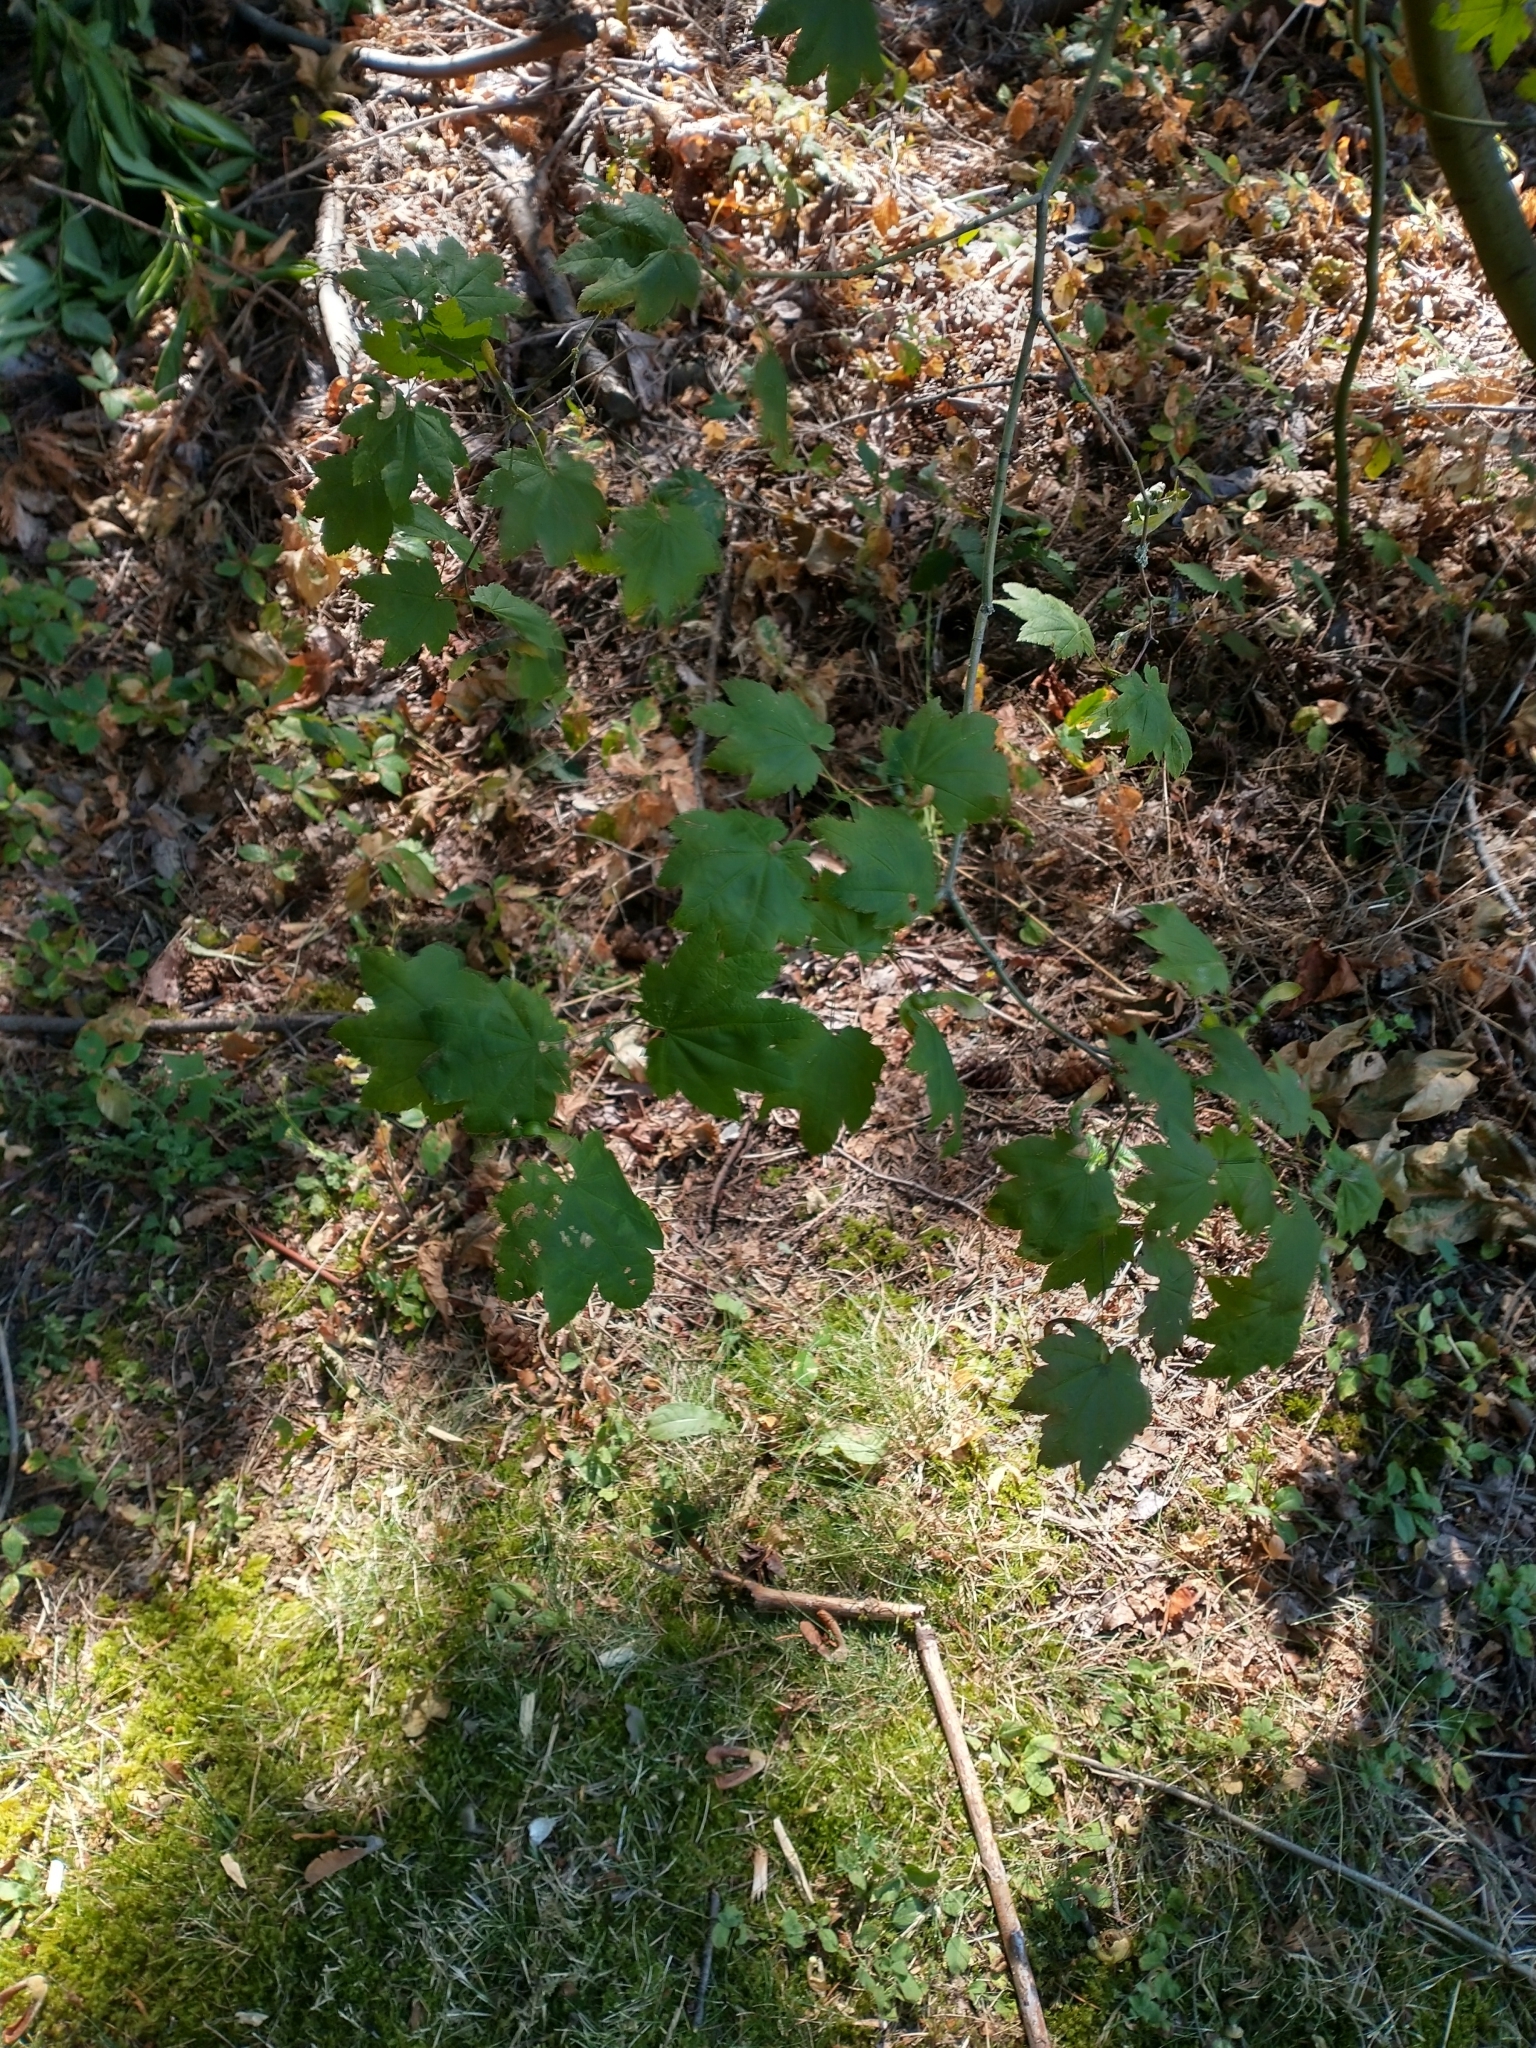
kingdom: Plantae
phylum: Tracheophyta
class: Magnoliopsida
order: Sapindales
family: Sapindaceae
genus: Acer
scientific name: Acer circinatum
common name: Vine maple
